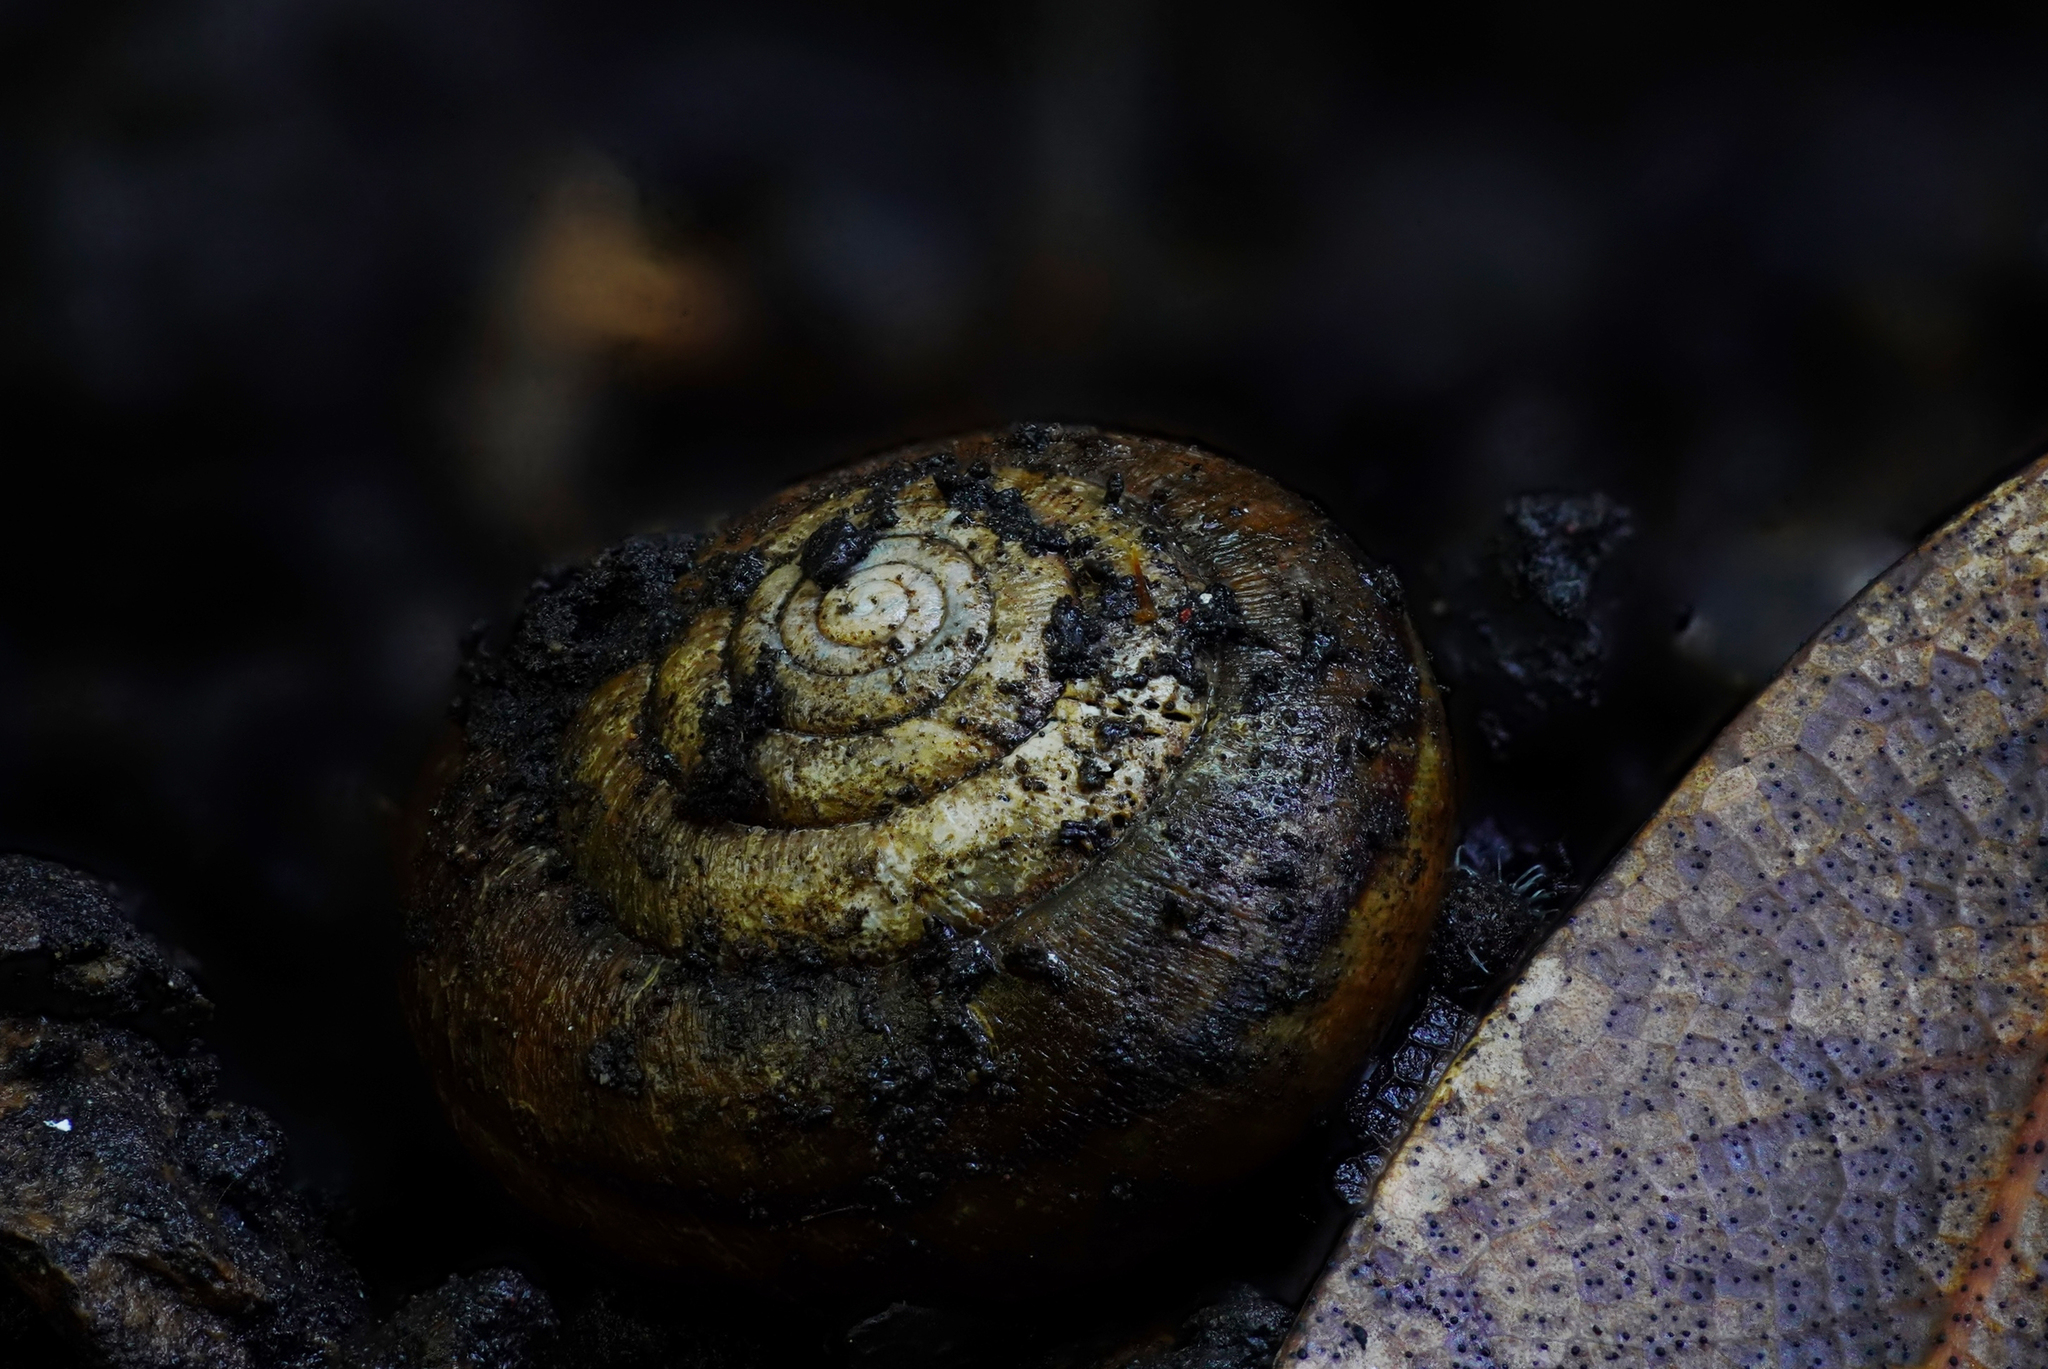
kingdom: Animalia
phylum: Mollusca
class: Gastropoda
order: Stylommatophora
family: Xanthonychidae
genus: Helminthoglypta
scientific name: Helminthoglypta diabloensis
